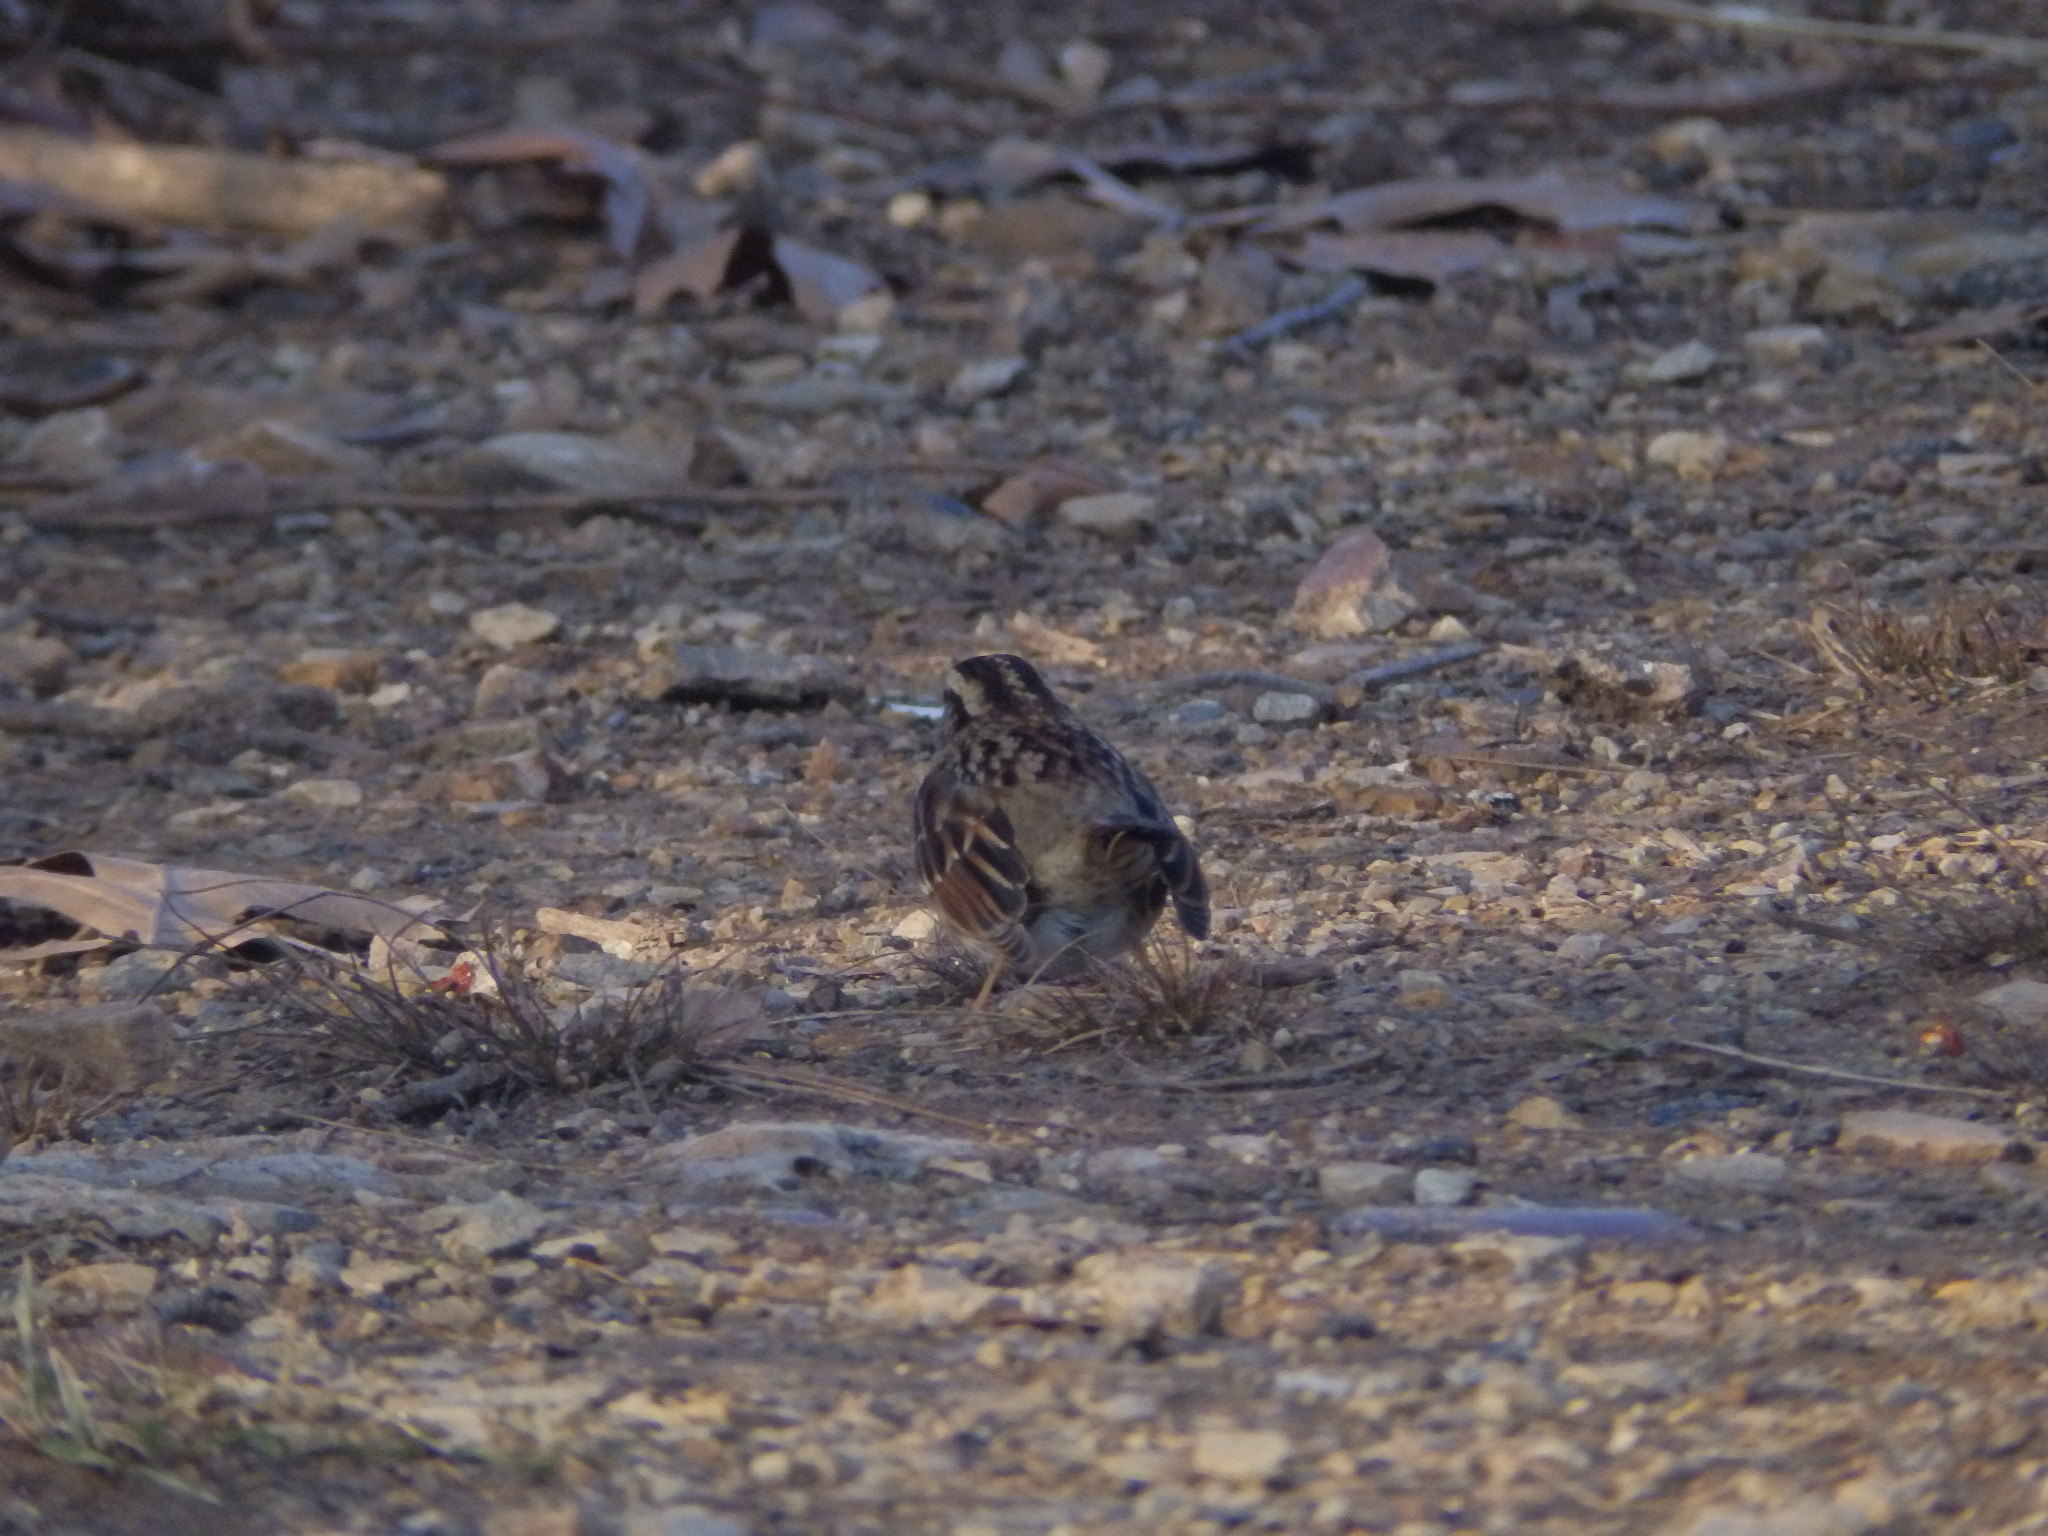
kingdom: Animalia
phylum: Chordata
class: Aves
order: Passeriformes
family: Passerellidae
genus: Zonotrichia
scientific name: Zonotrichia albicollis
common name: White-throated sparrow
